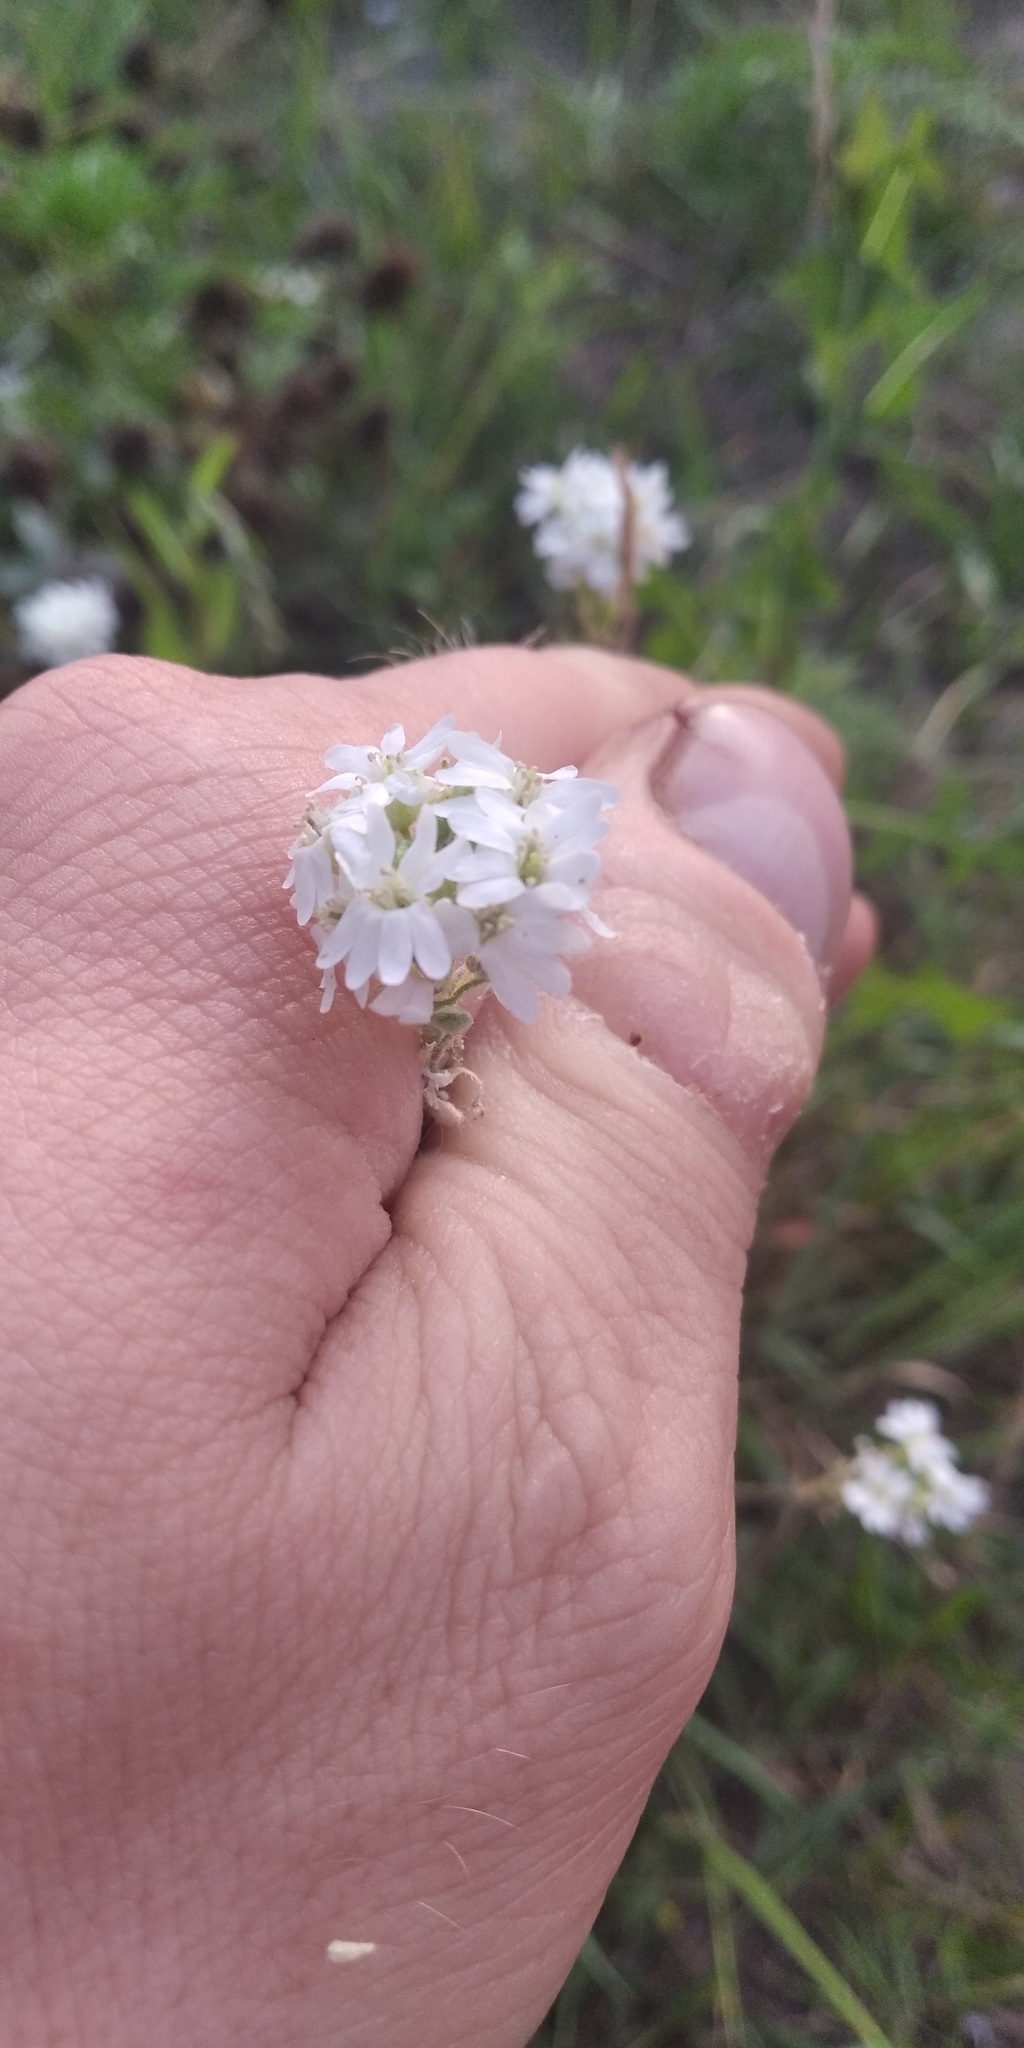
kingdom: Plantae
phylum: Tracheophyta
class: Magnoliopsida
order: Brassicales
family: Brassicaceae
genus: Berteroa
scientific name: Berteroa incana
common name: Hoary alison
